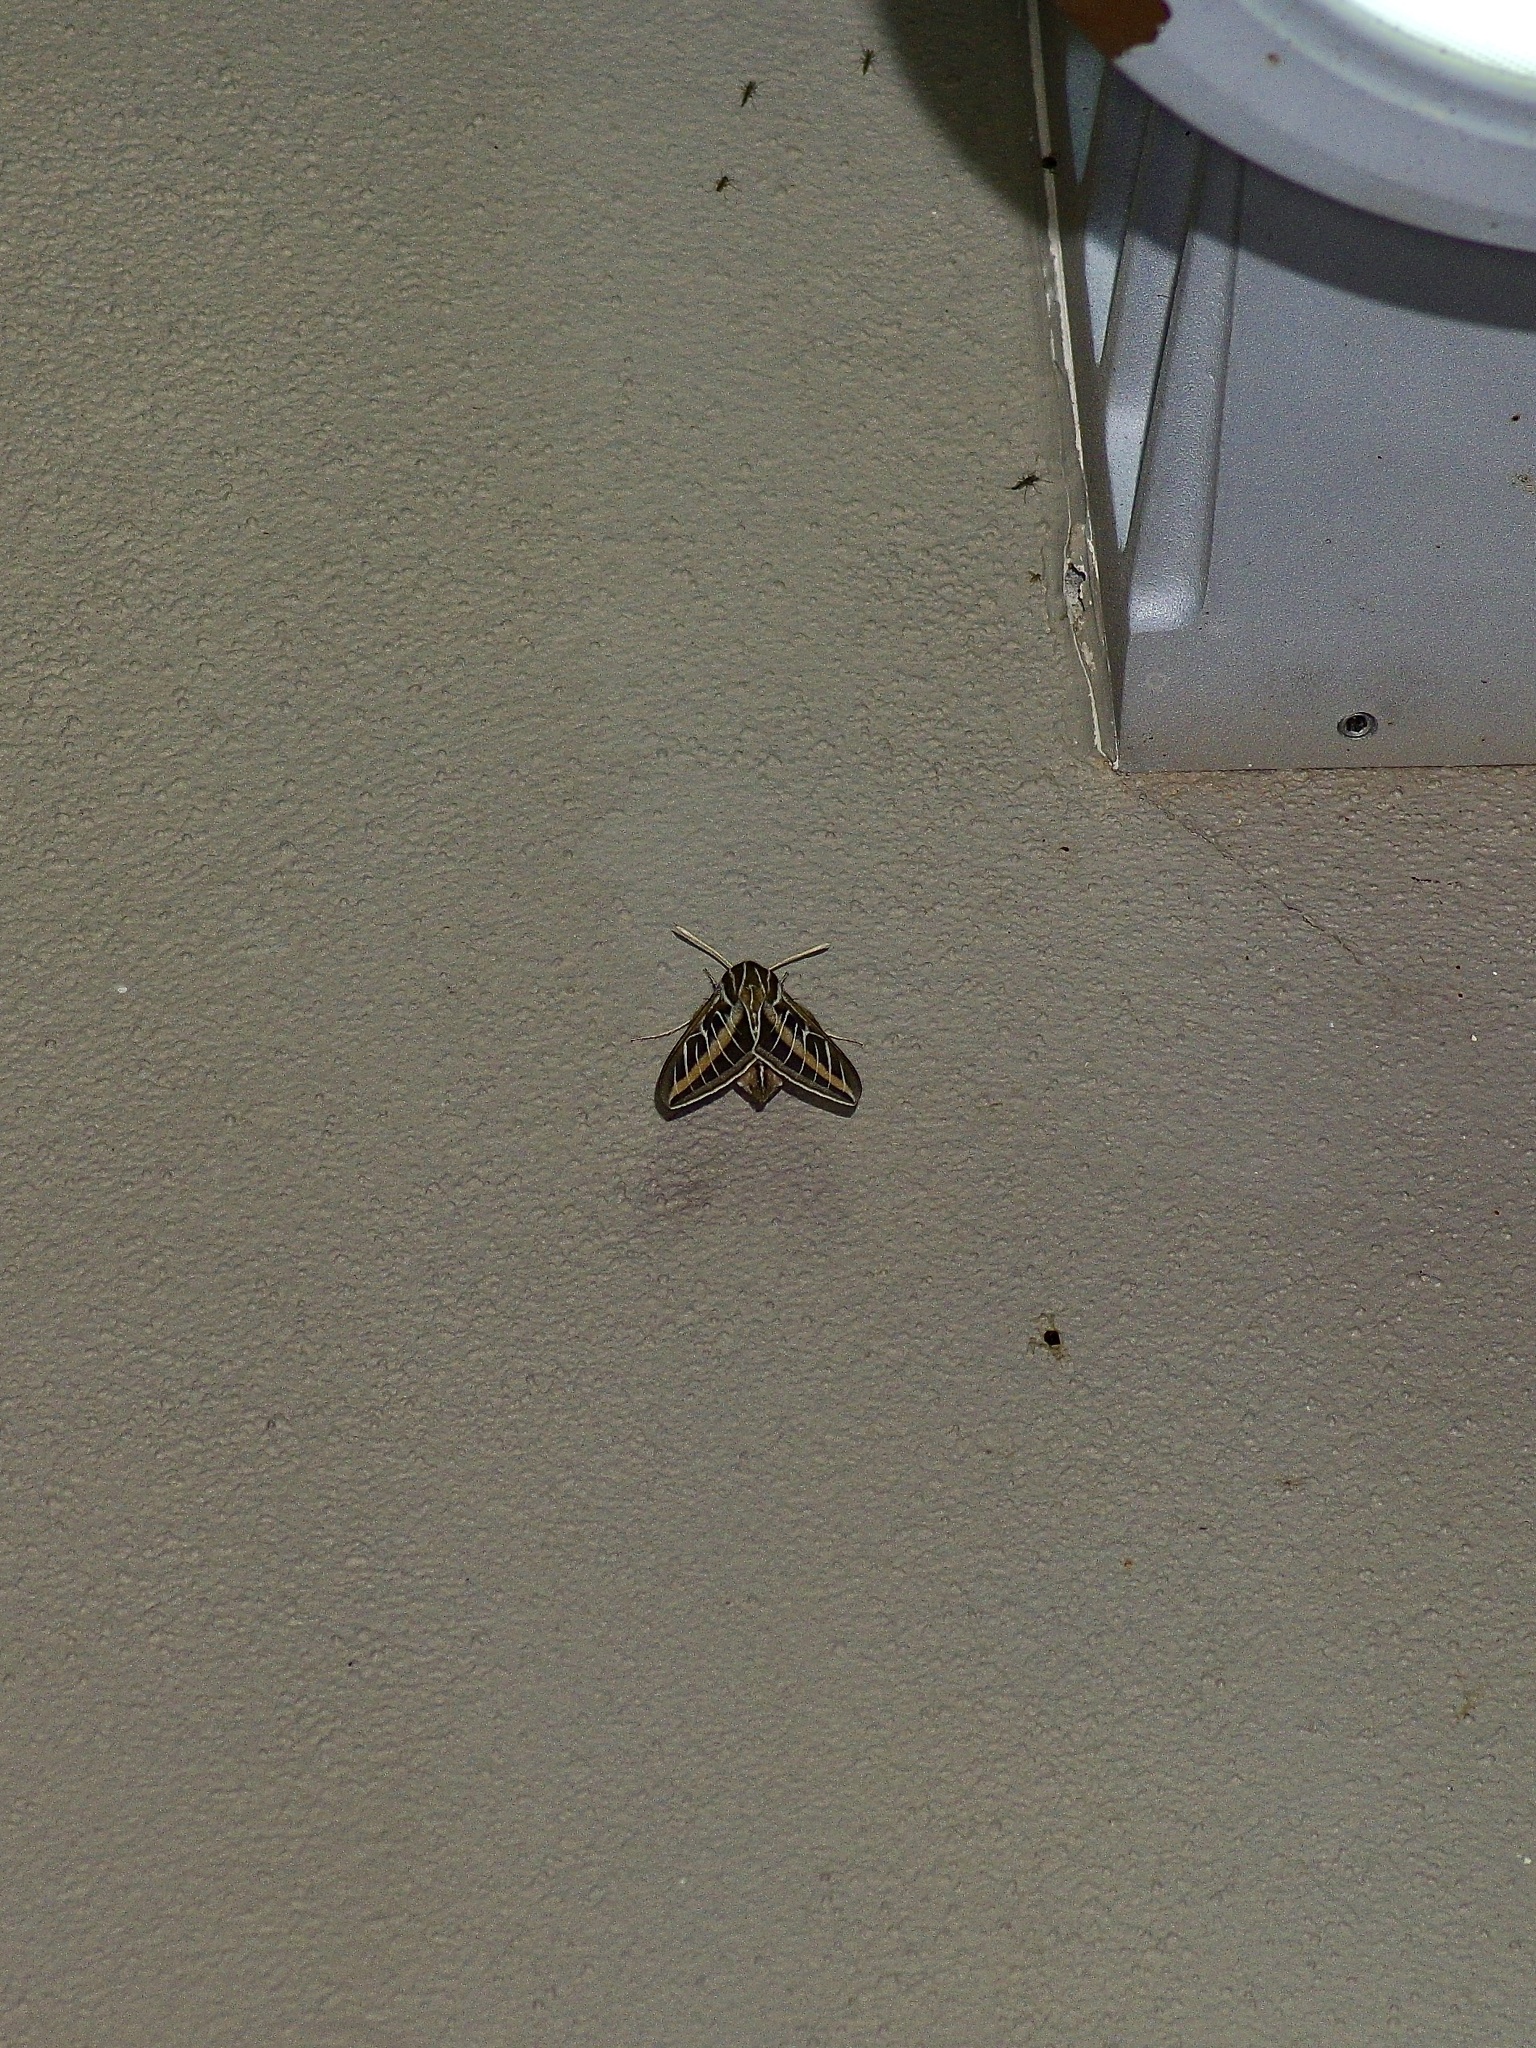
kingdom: Animalia
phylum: Arthropoda
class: Insecta
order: Lepidoptera
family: Sphingidae
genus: Hyles
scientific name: Hyles lineata
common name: White-lined sphinx
